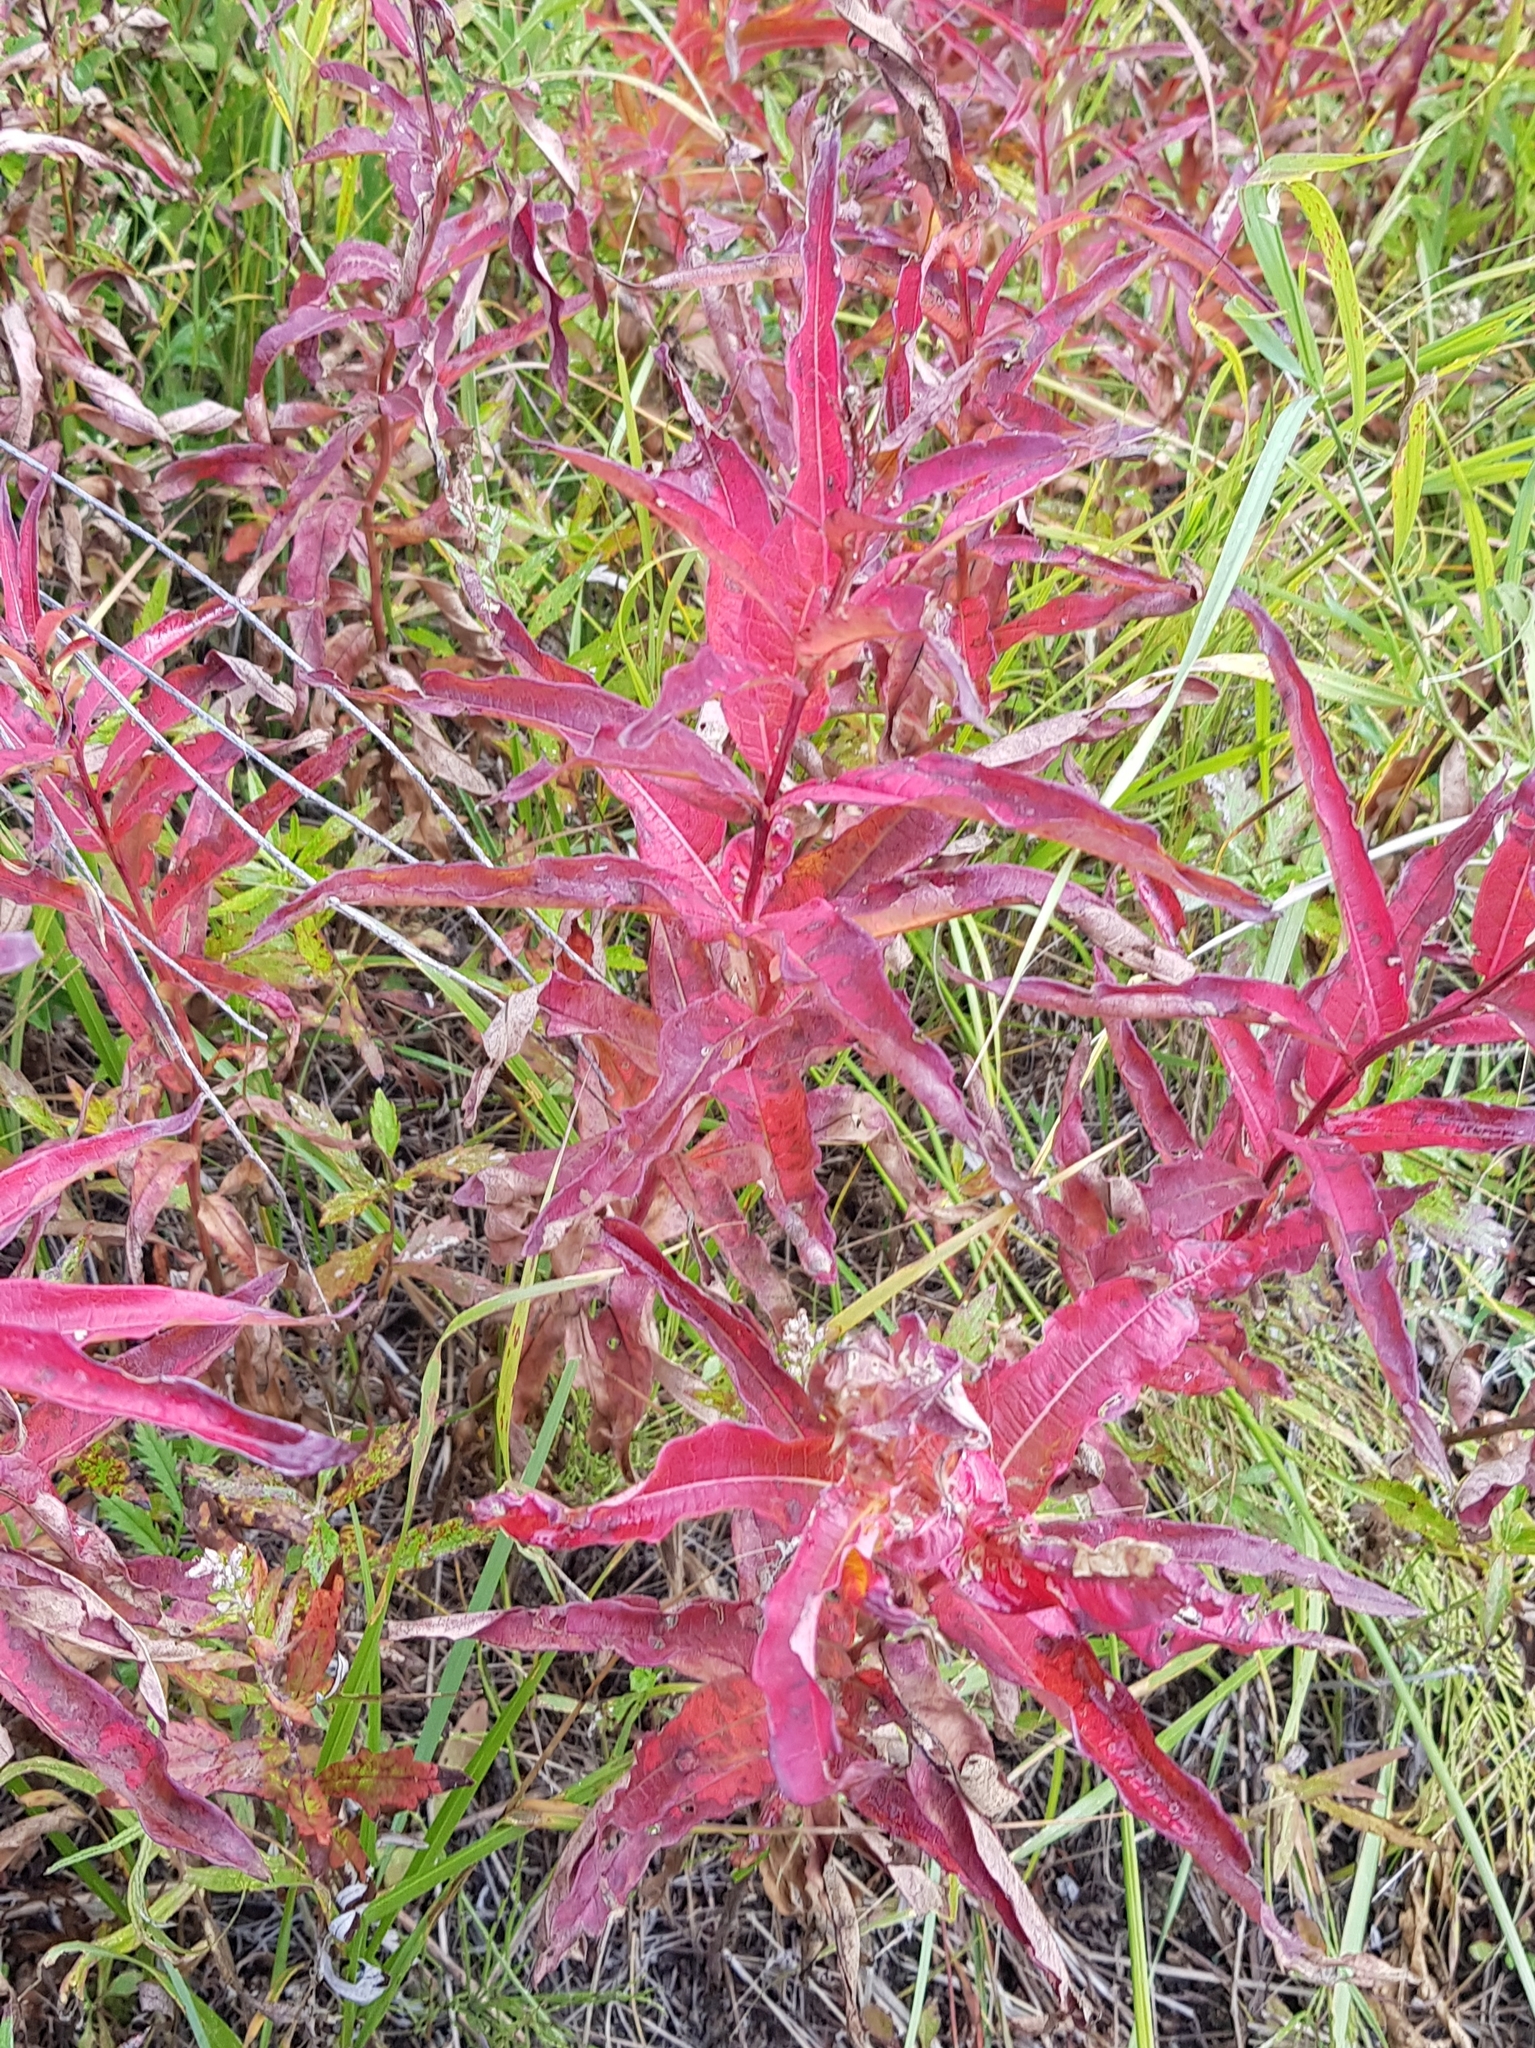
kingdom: Plantae
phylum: Tracheophyta
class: Magnoliopsida
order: Myrtales
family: Onagraceae
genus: Chamaenerion
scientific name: Chamaenerion angustifolium
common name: Fireweed
